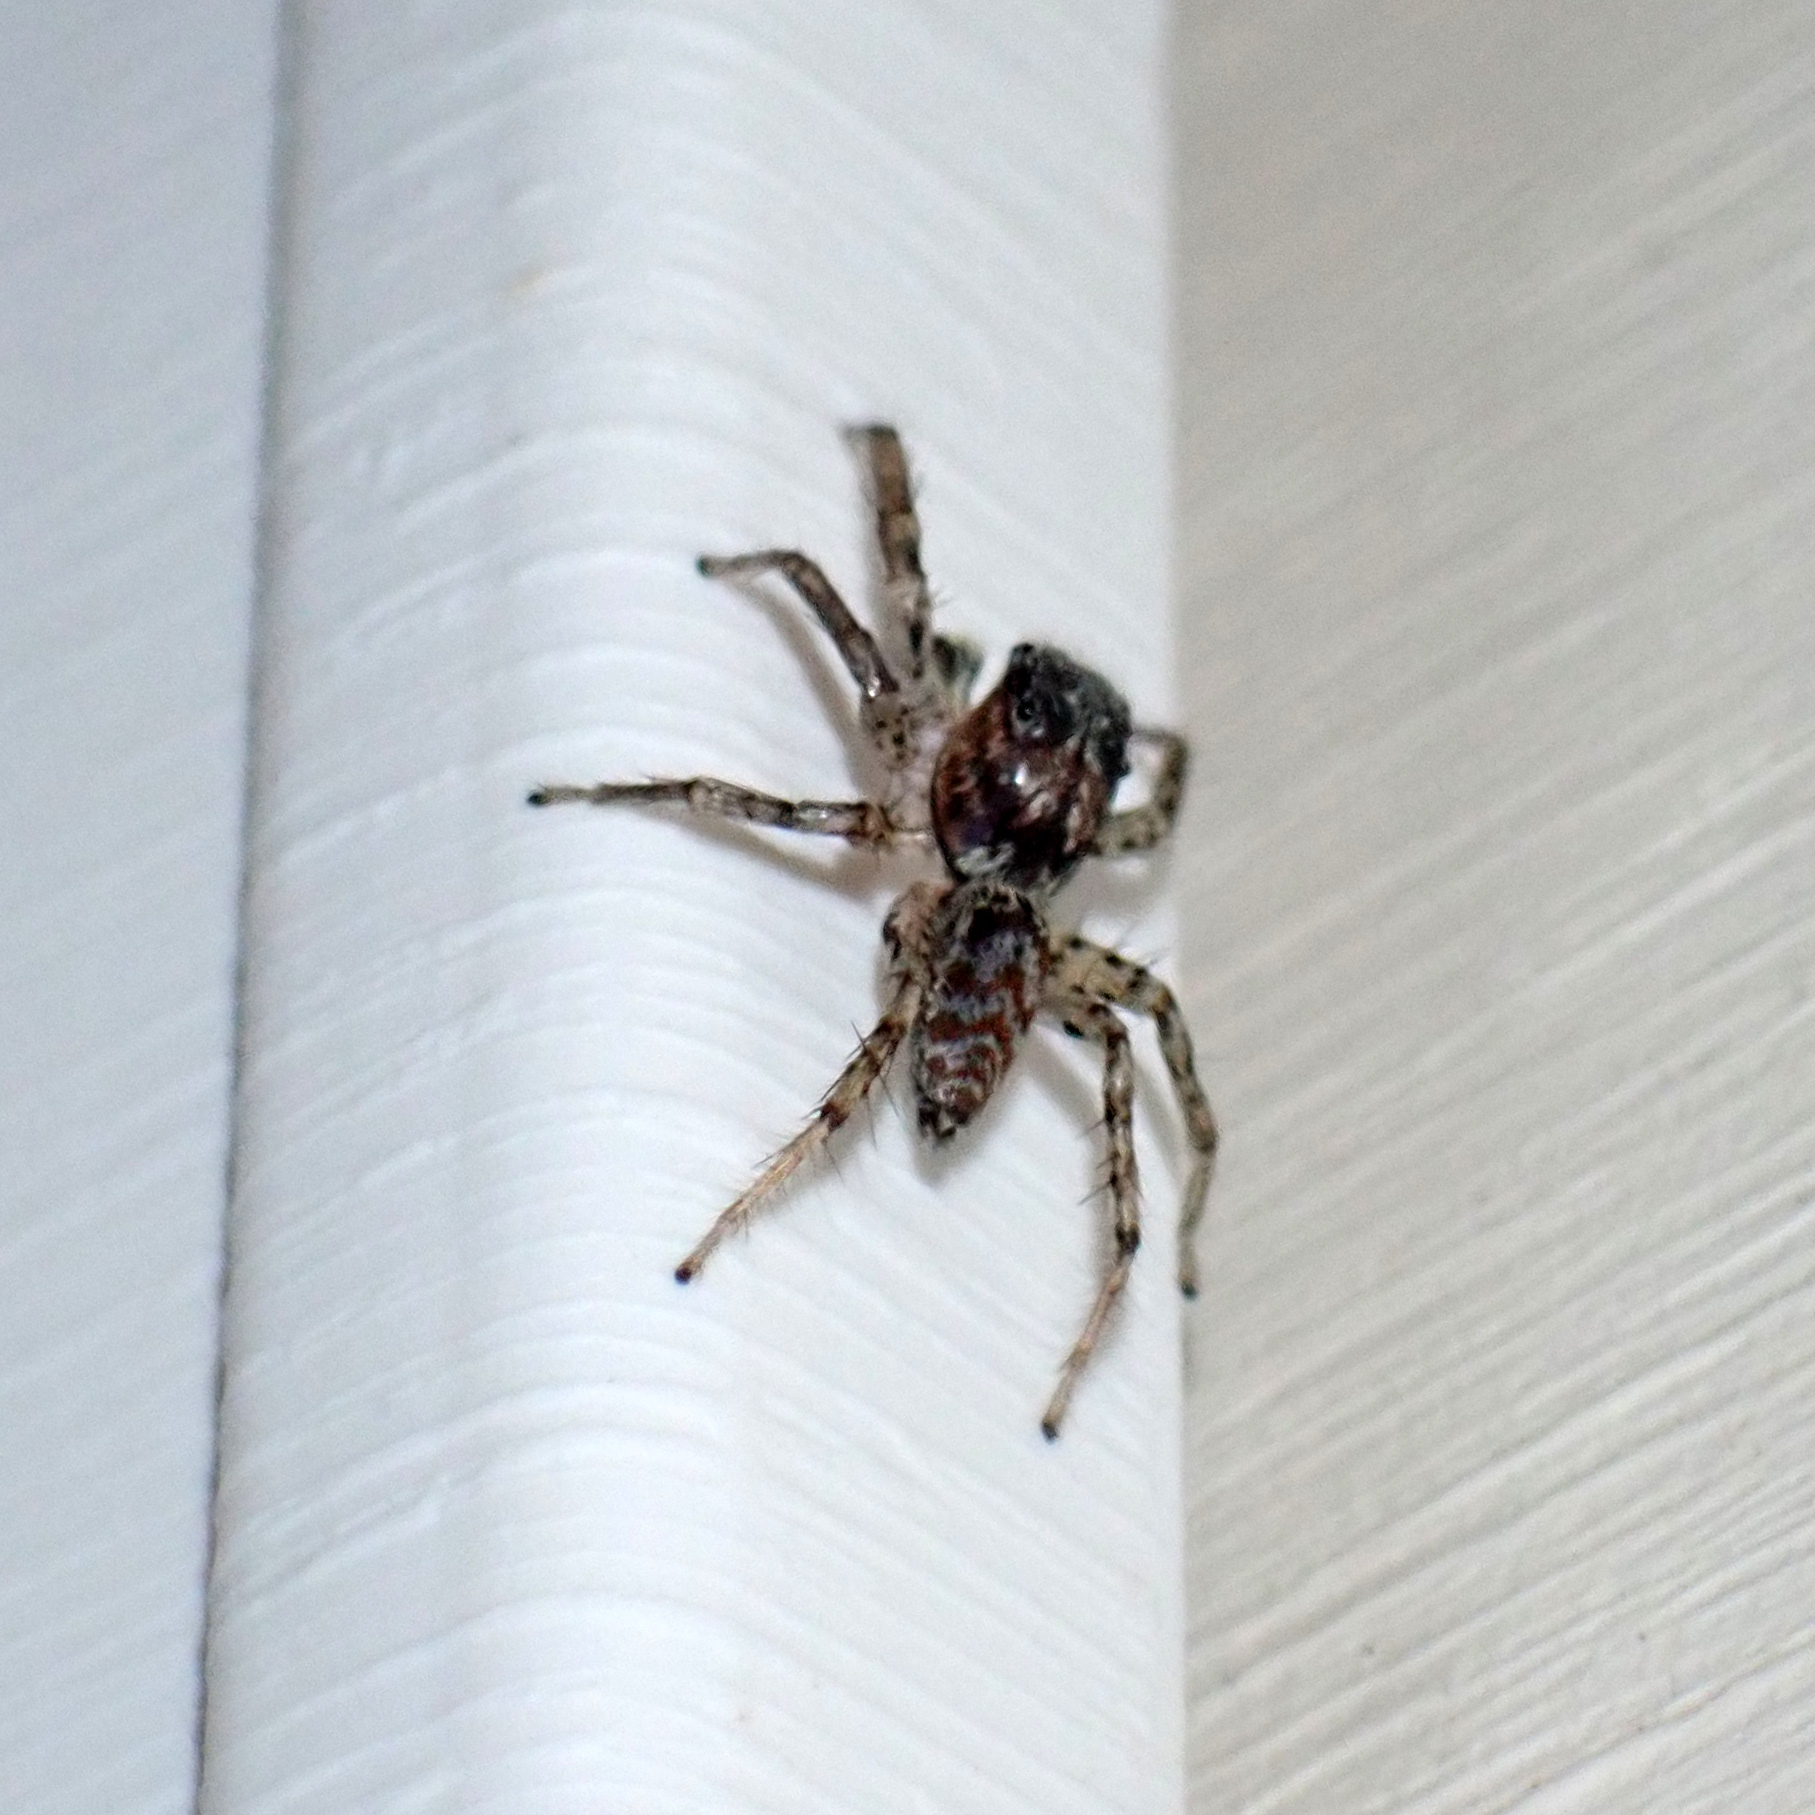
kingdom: Animalia
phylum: Arthropoda
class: Arachnida
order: Araneae
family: Salticidae
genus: Maevia
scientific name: Maevia inclemens
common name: Dimorphic jumper
